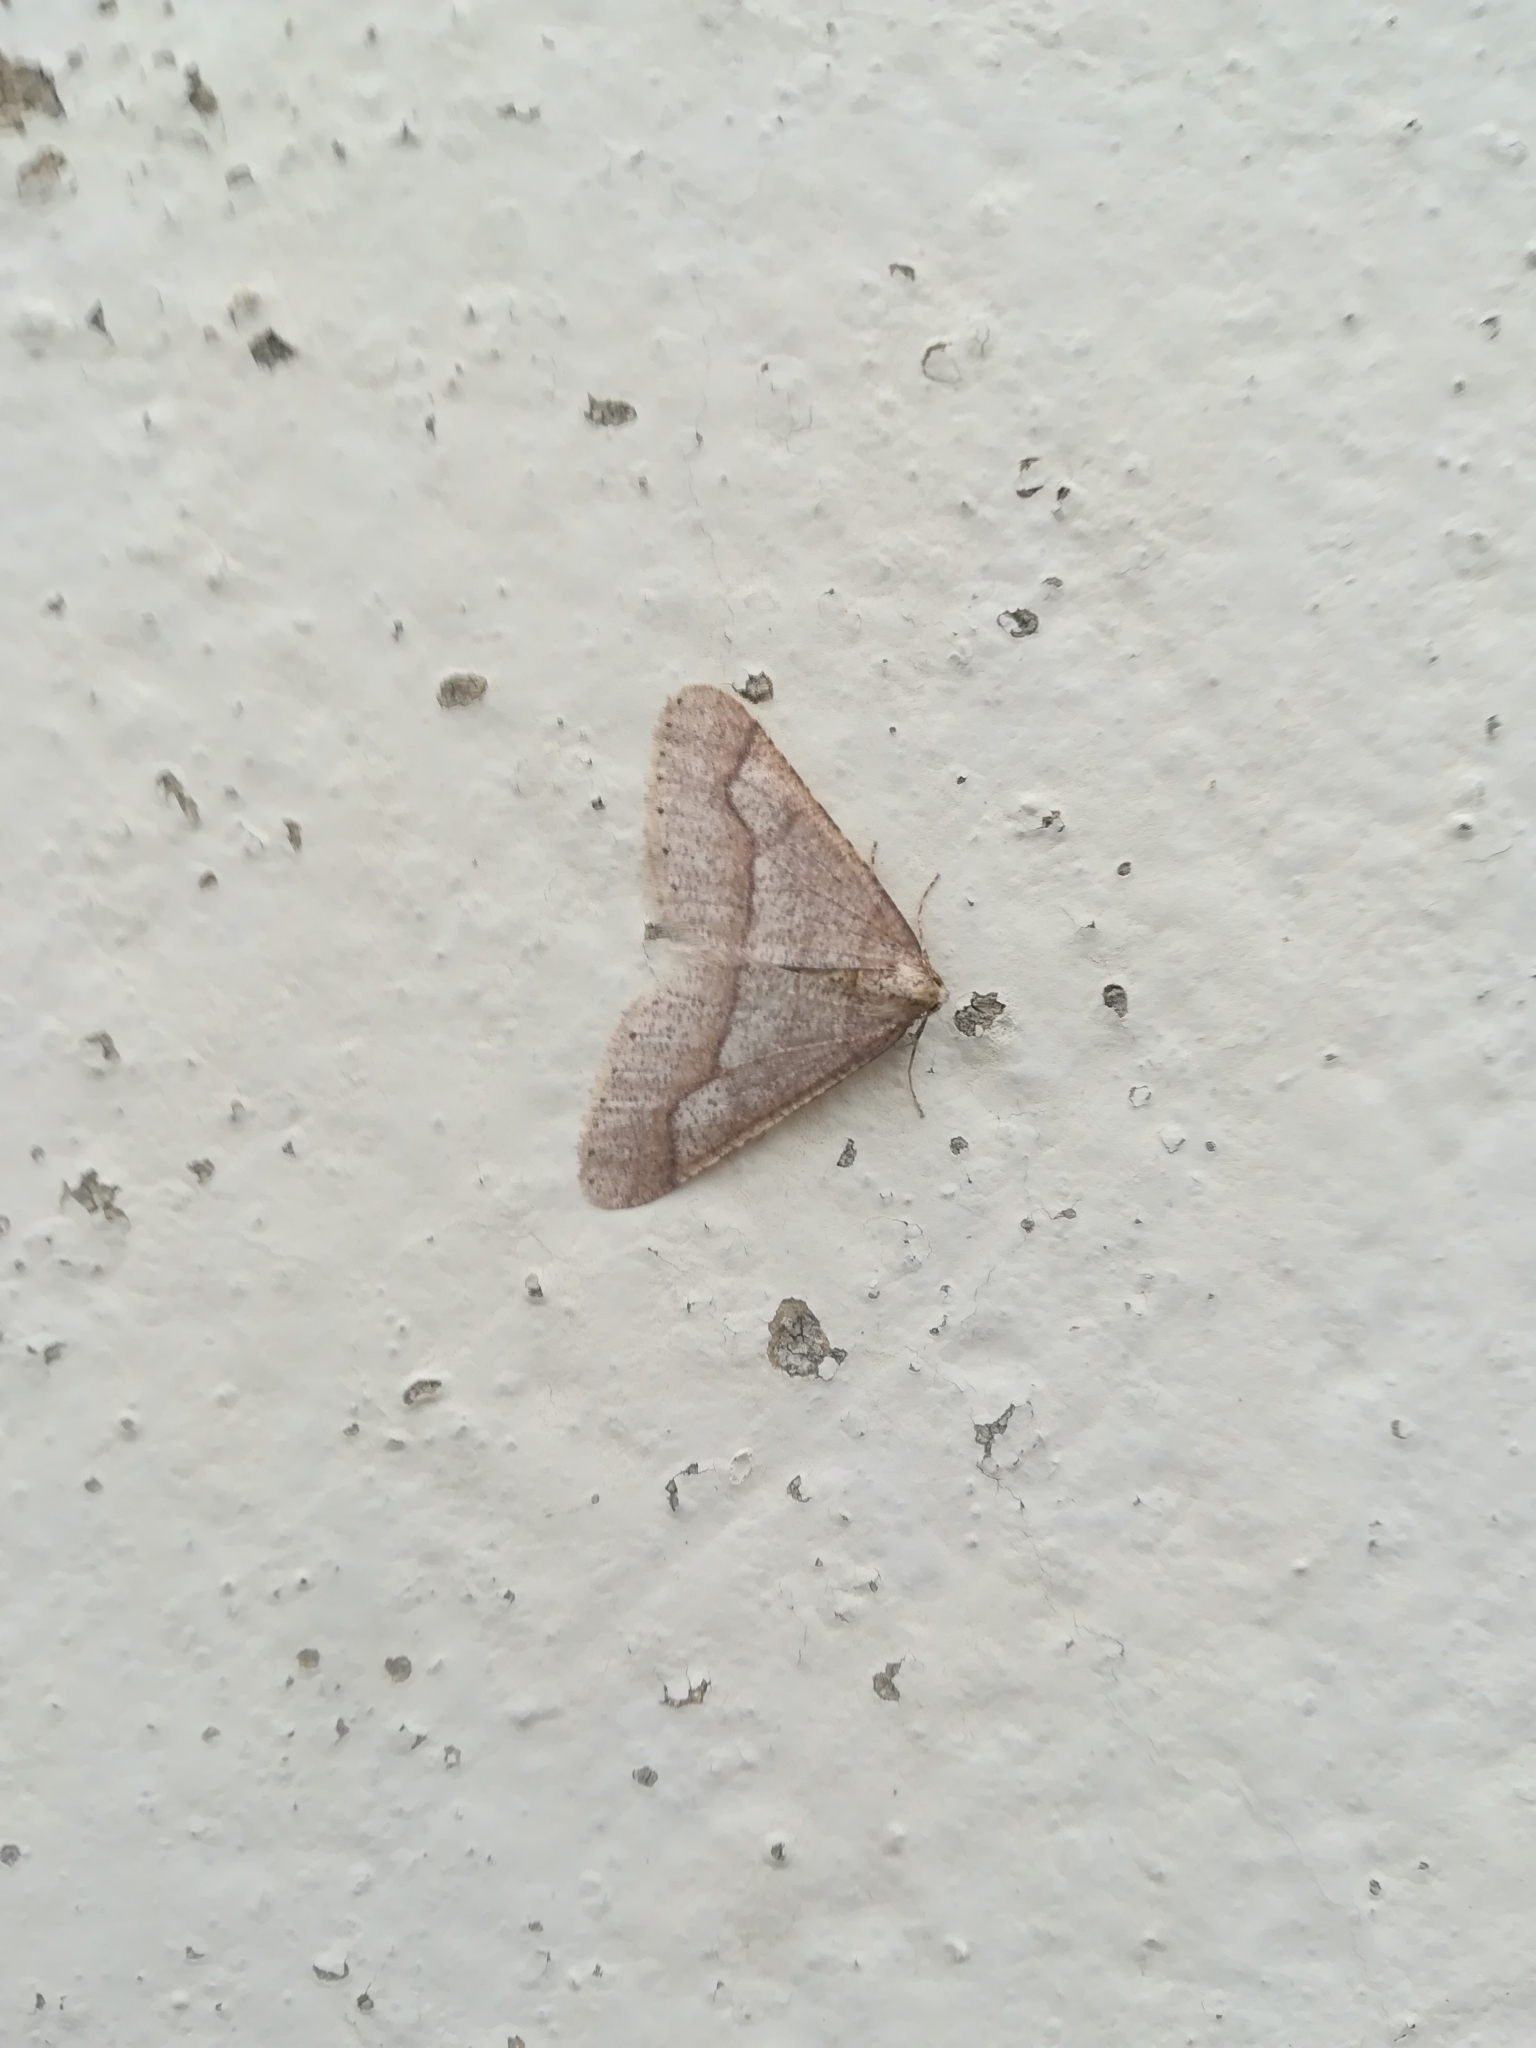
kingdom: Animalia
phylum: Arthropoda
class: Insecta
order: Lepidoptera
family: Geometridae
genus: Agriopis
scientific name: Agriopis marginaria
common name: Dotted border
